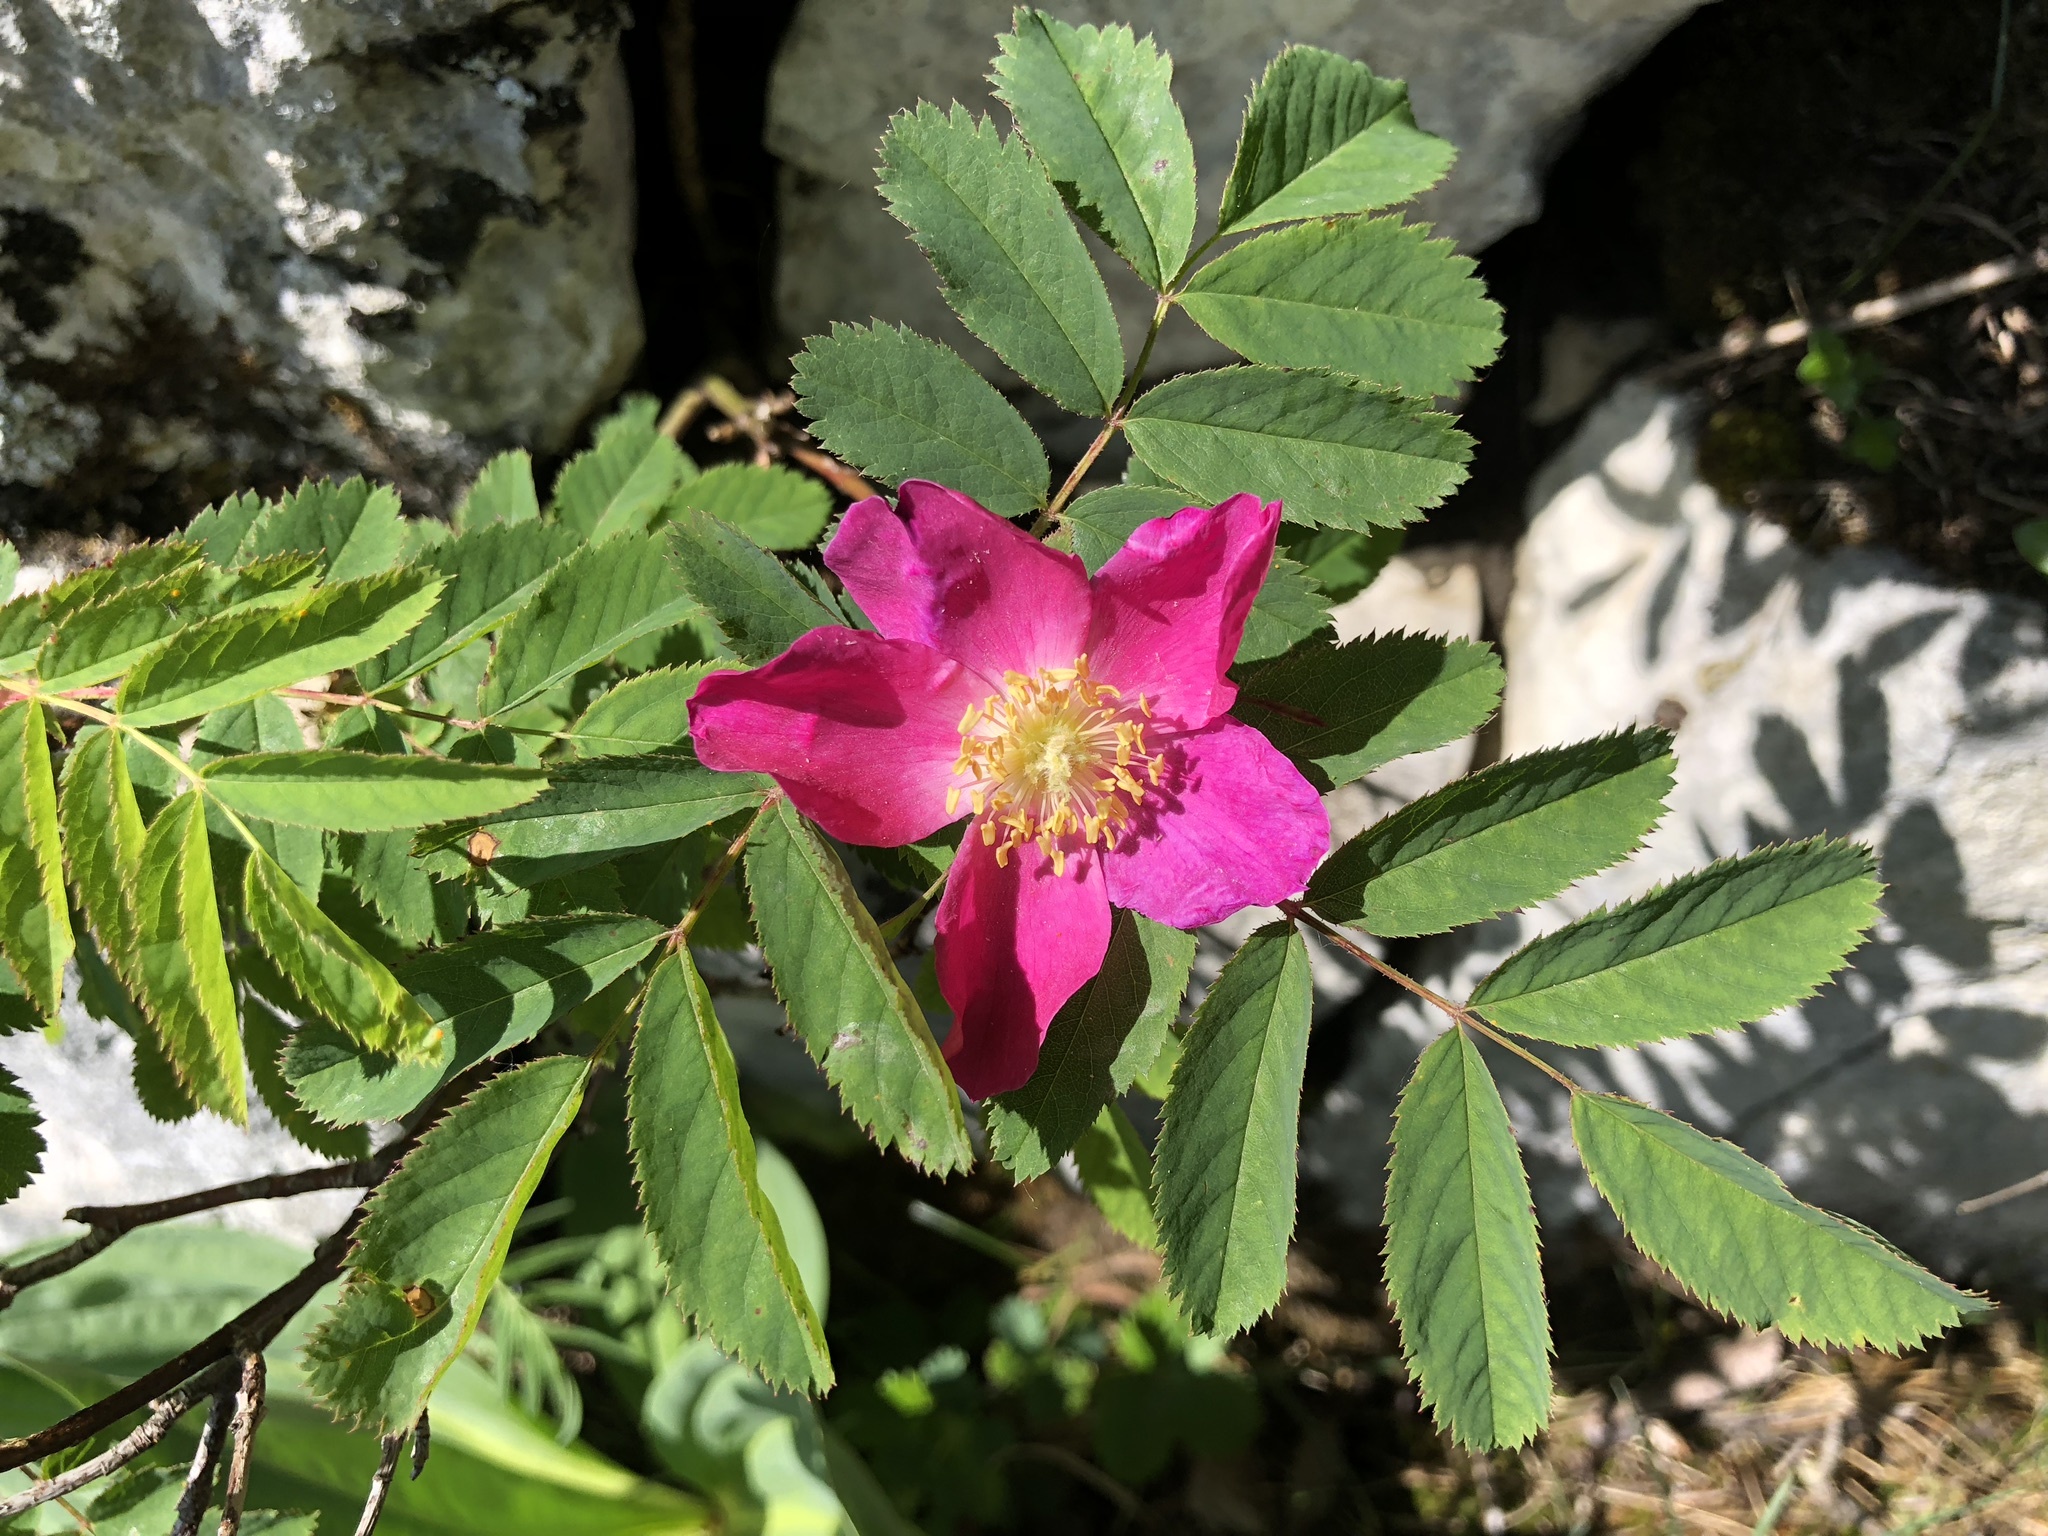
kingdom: Plantae
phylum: Tracheophyta
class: Magnoliopsida
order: Rosales
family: Rosaceae
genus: Rosa
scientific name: Rosa pendulina
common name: Alpine rose
